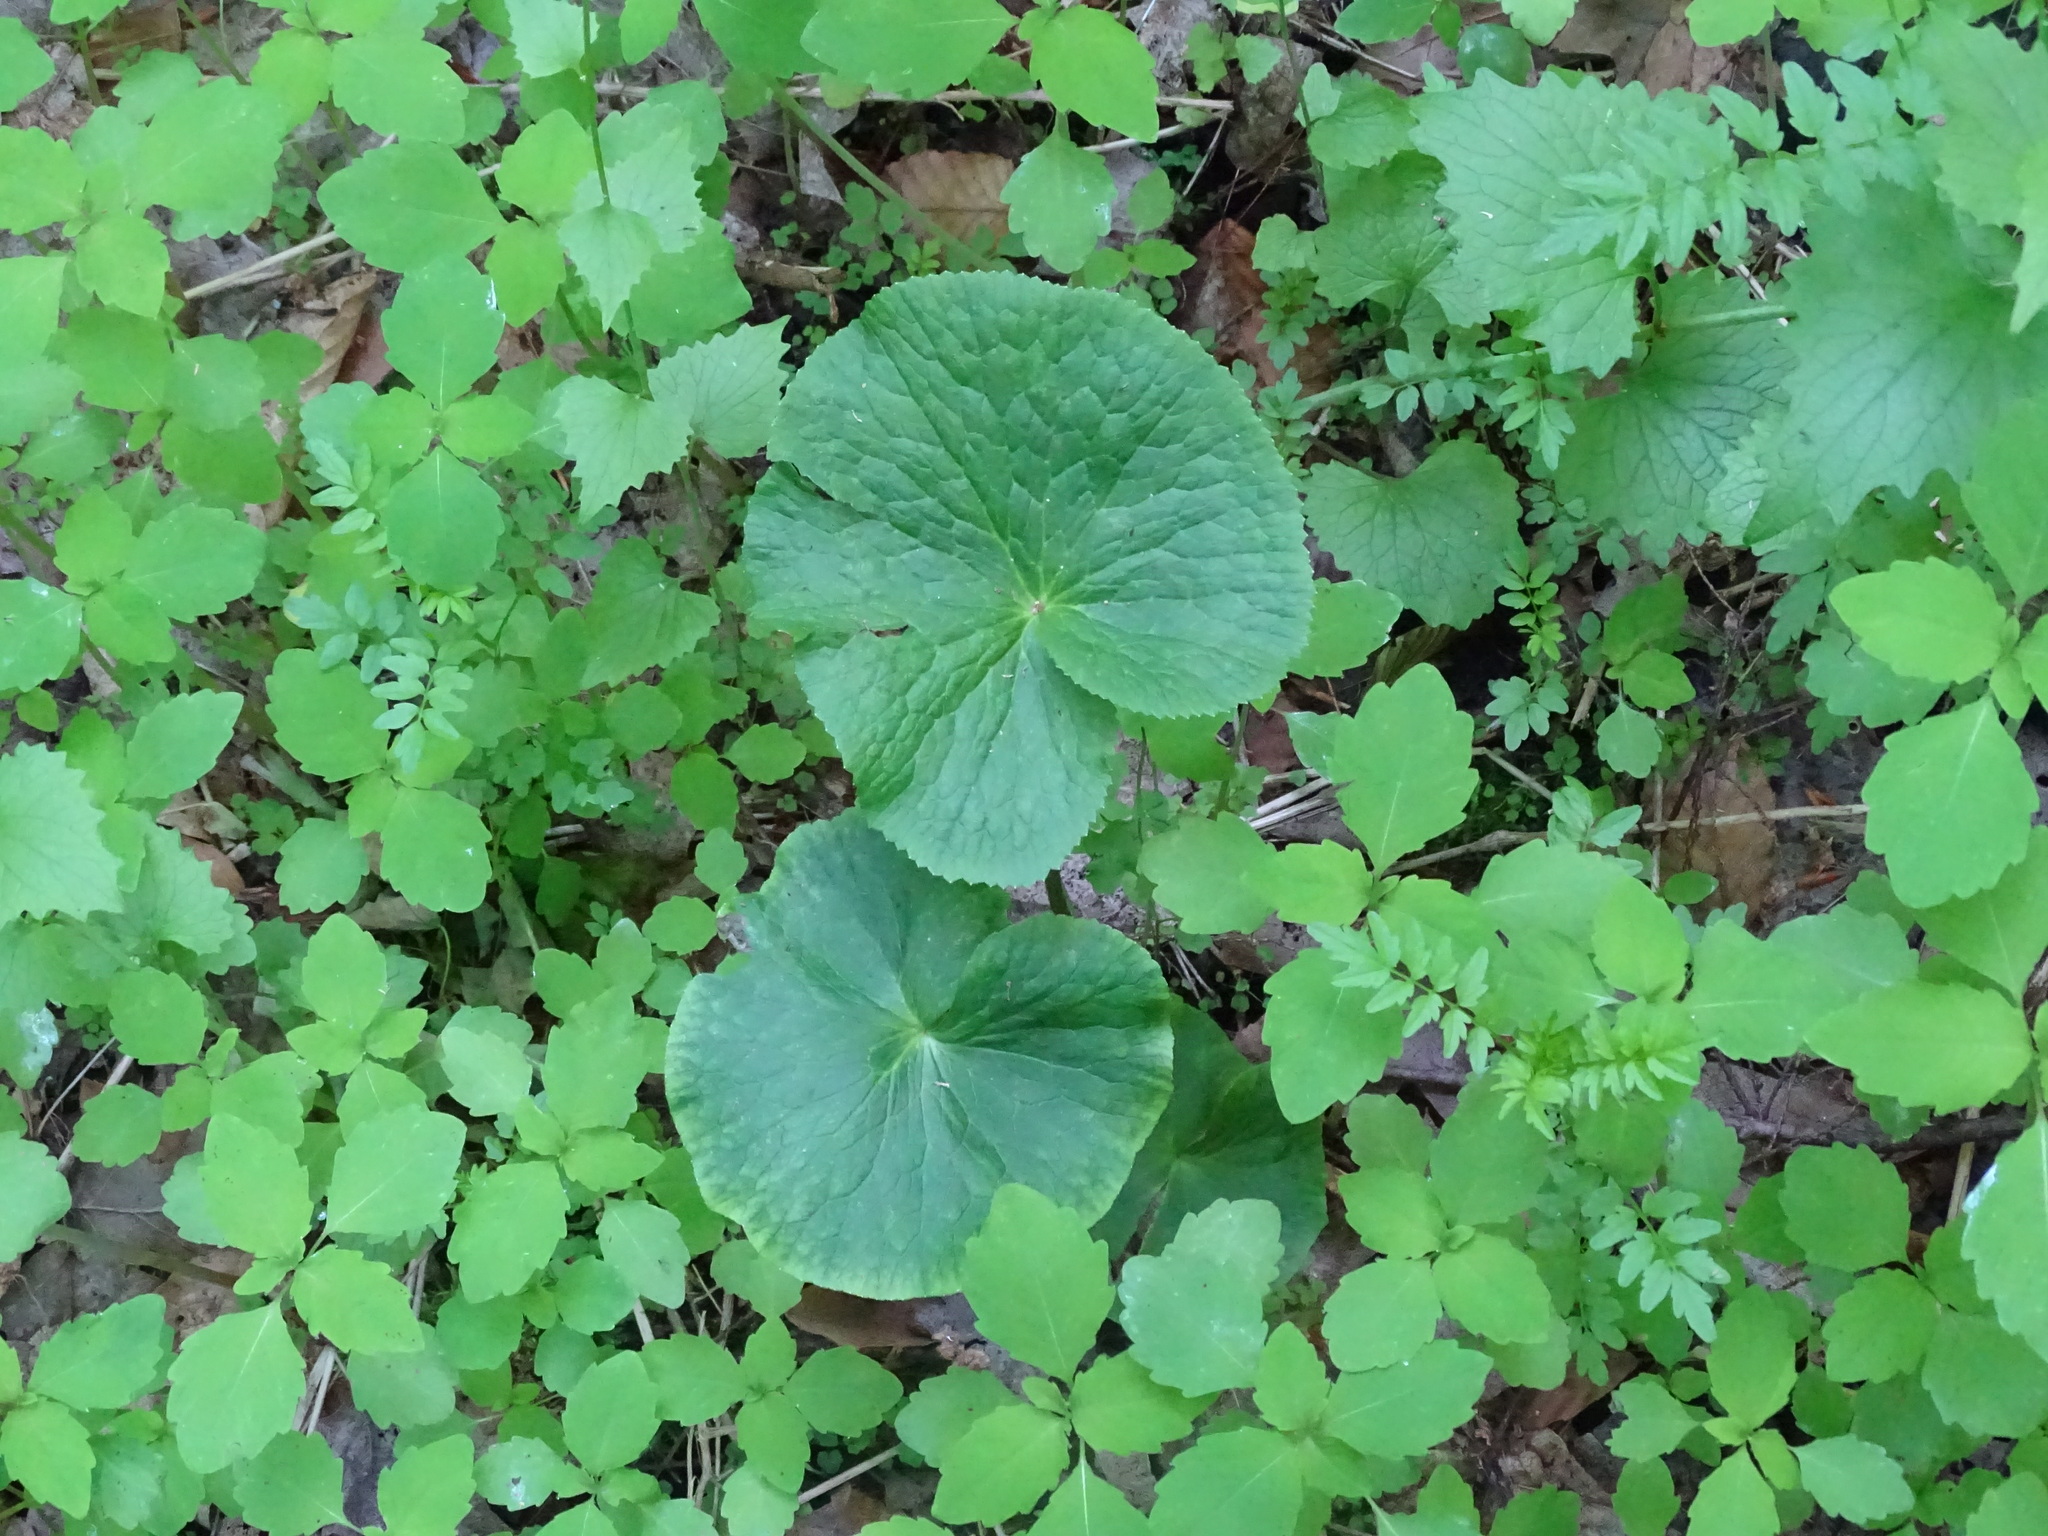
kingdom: Plantae
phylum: Tracheophyta
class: Magnoliopsida
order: Ranunculales
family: Ranunculaceae
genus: Caltha
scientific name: Caltha palustris
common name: Marsh marigold
